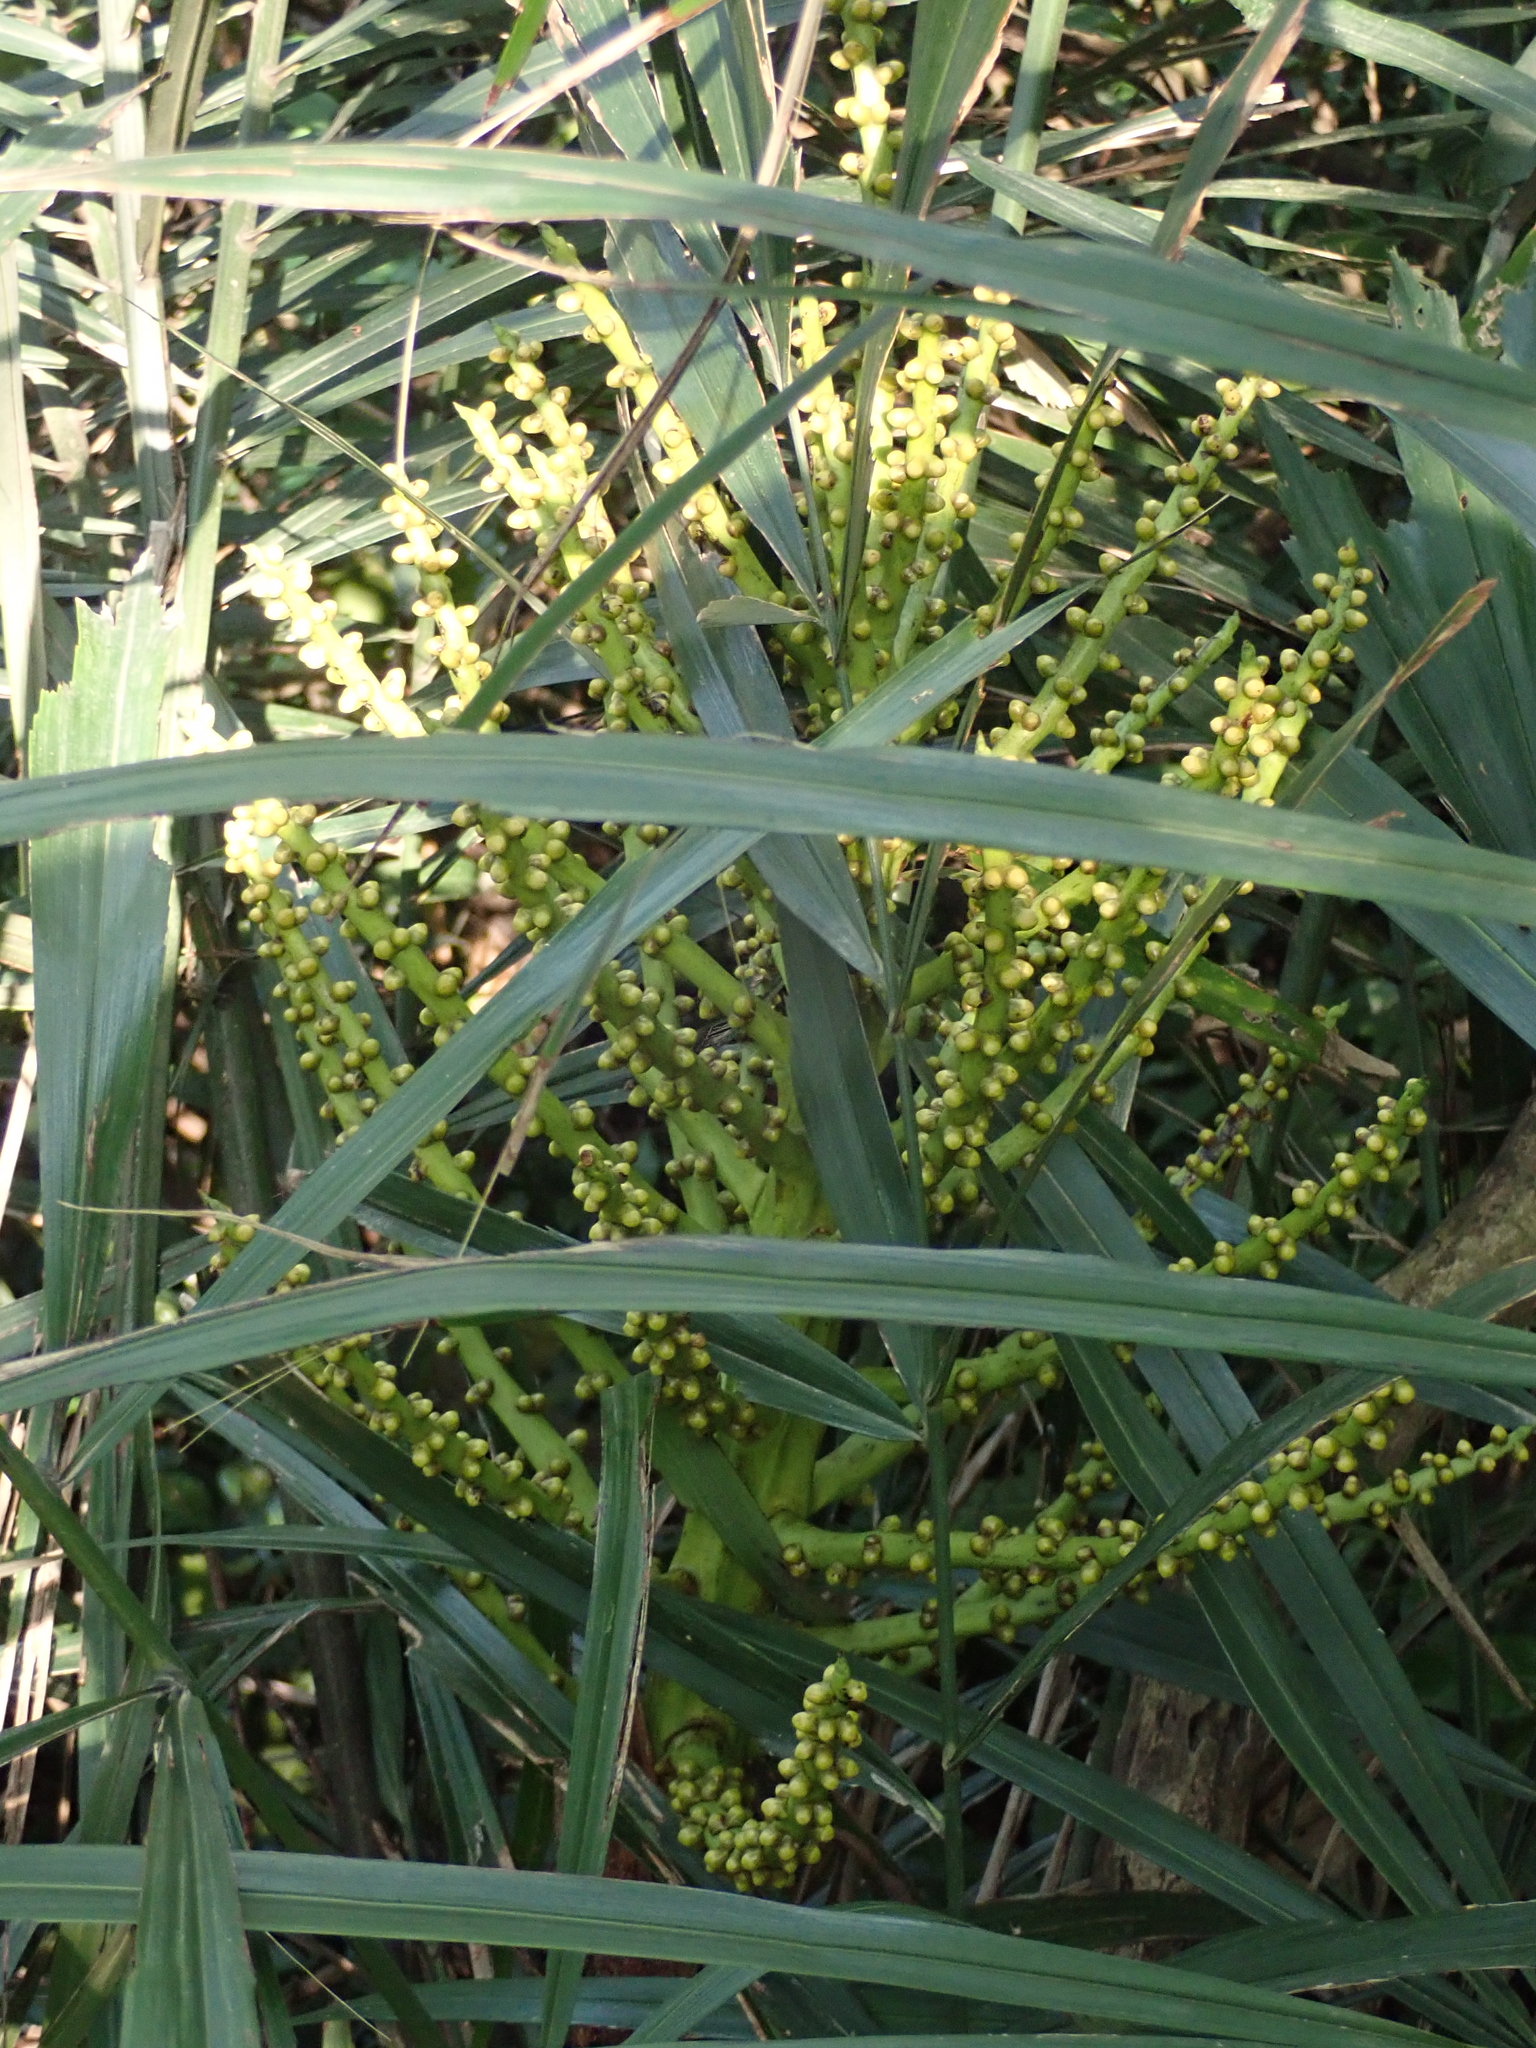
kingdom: Plantae
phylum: Tracheophyta
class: Liliopsida
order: Arecales
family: Arecaceae
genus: Arenga
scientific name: Arenga engleri
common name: Formosan sugar palm
